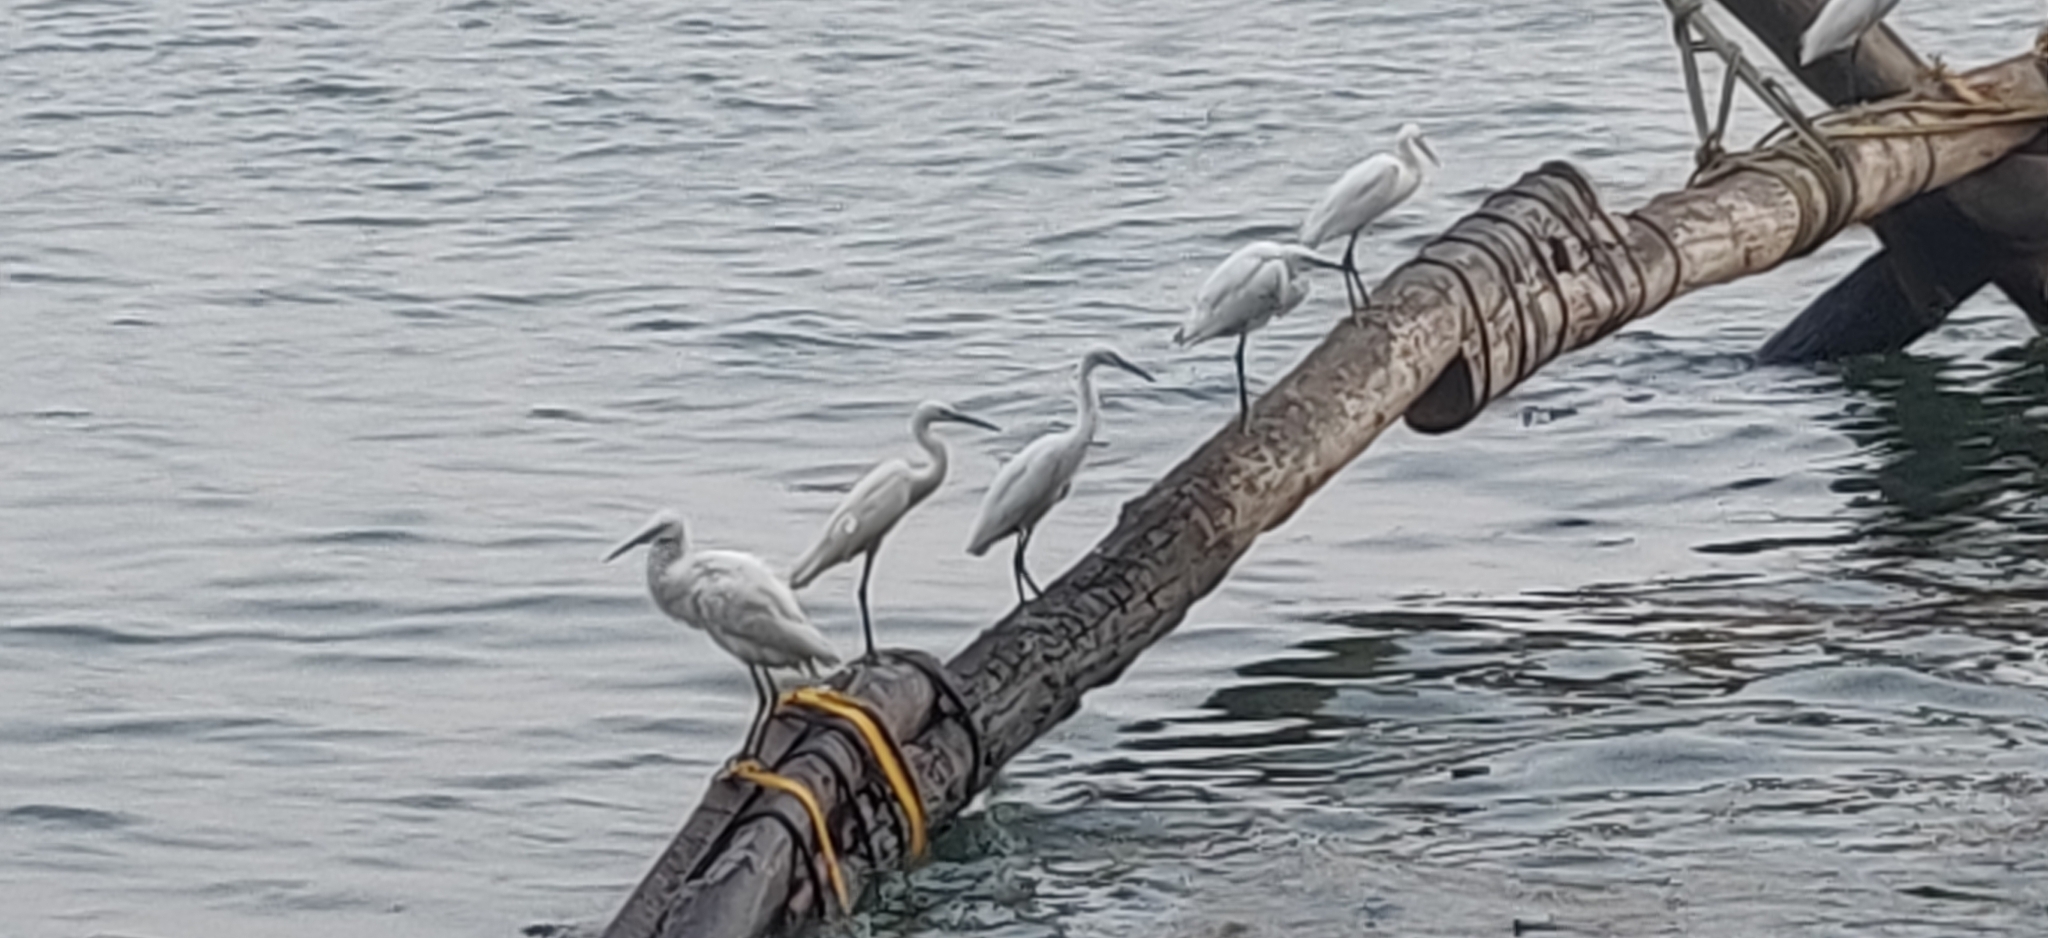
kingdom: Animalia
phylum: Chordata
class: Aves
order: Pelecaniformes
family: Ardeidae
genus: Egretta
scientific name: Egretta gularis
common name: Western reef-heron
